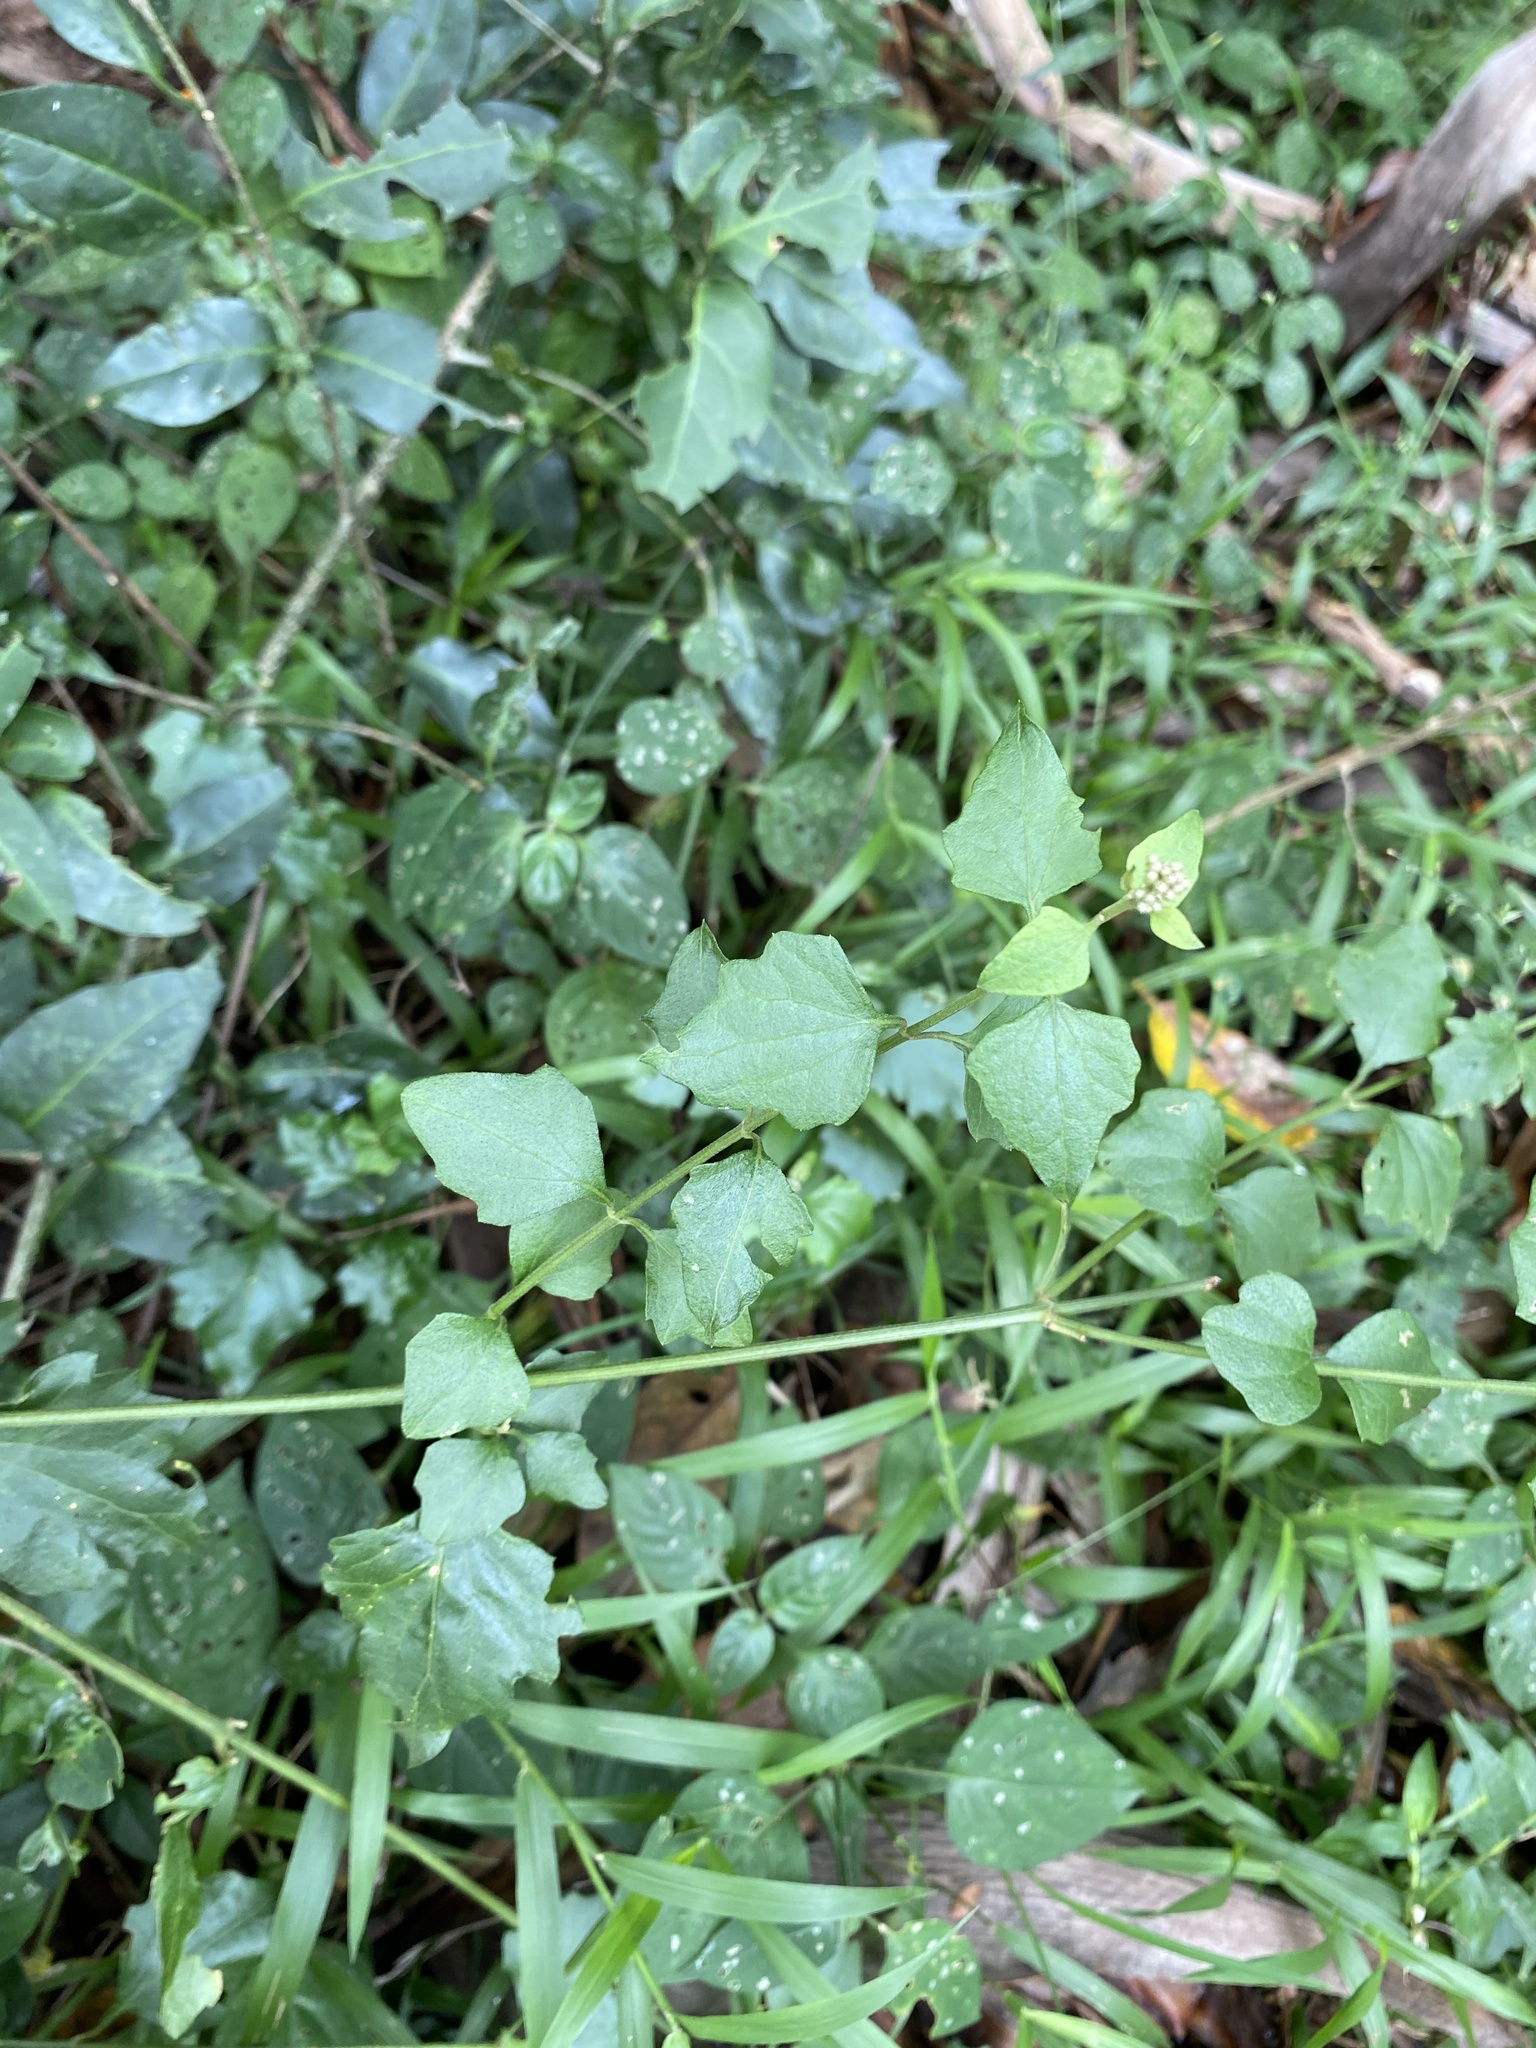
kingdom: Plantae
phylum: Tracheophyta
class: Magnoliopsida
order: Asterales
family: Asteraceae
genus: Microglossa
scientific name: Microglossa mespilifolia
